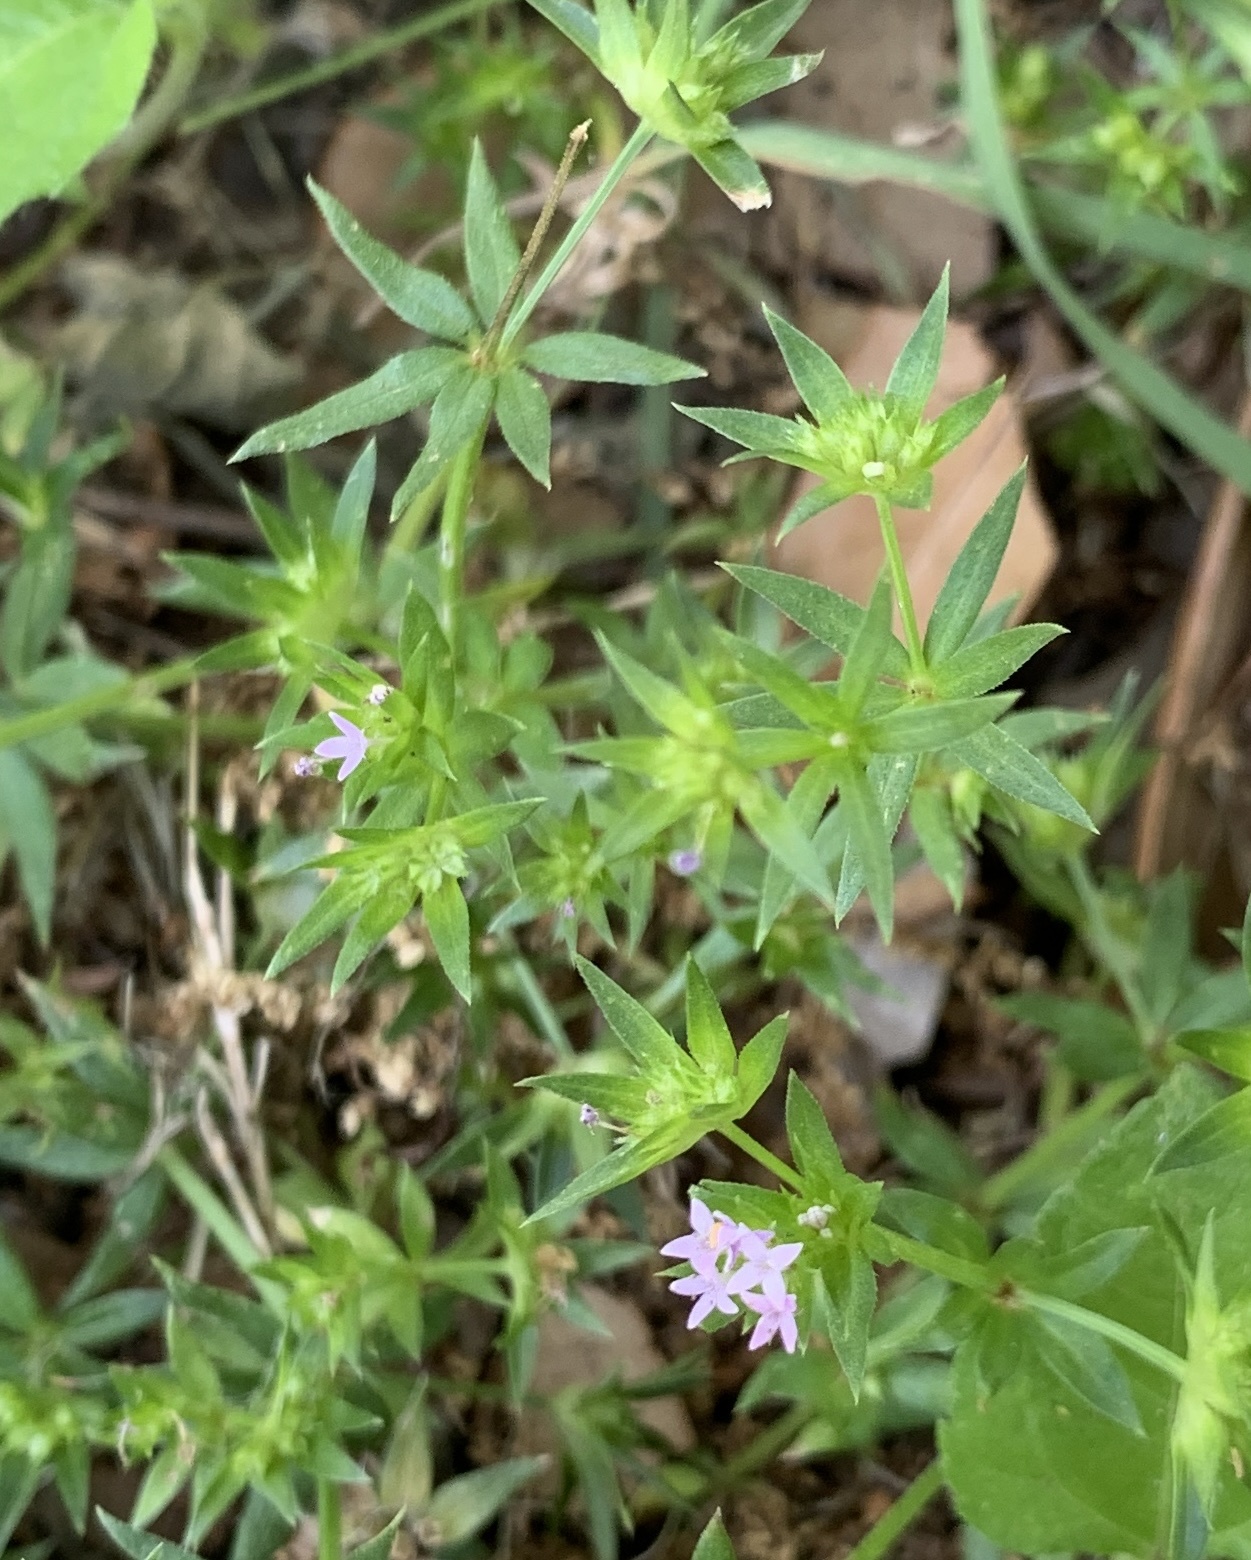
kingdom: Plantae
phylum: Tracheophyta
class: Magnoliopsida
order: Gentianales
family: Rubiaceae
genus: Sherardia
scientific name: Sherardia arvensis
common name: Field madder
